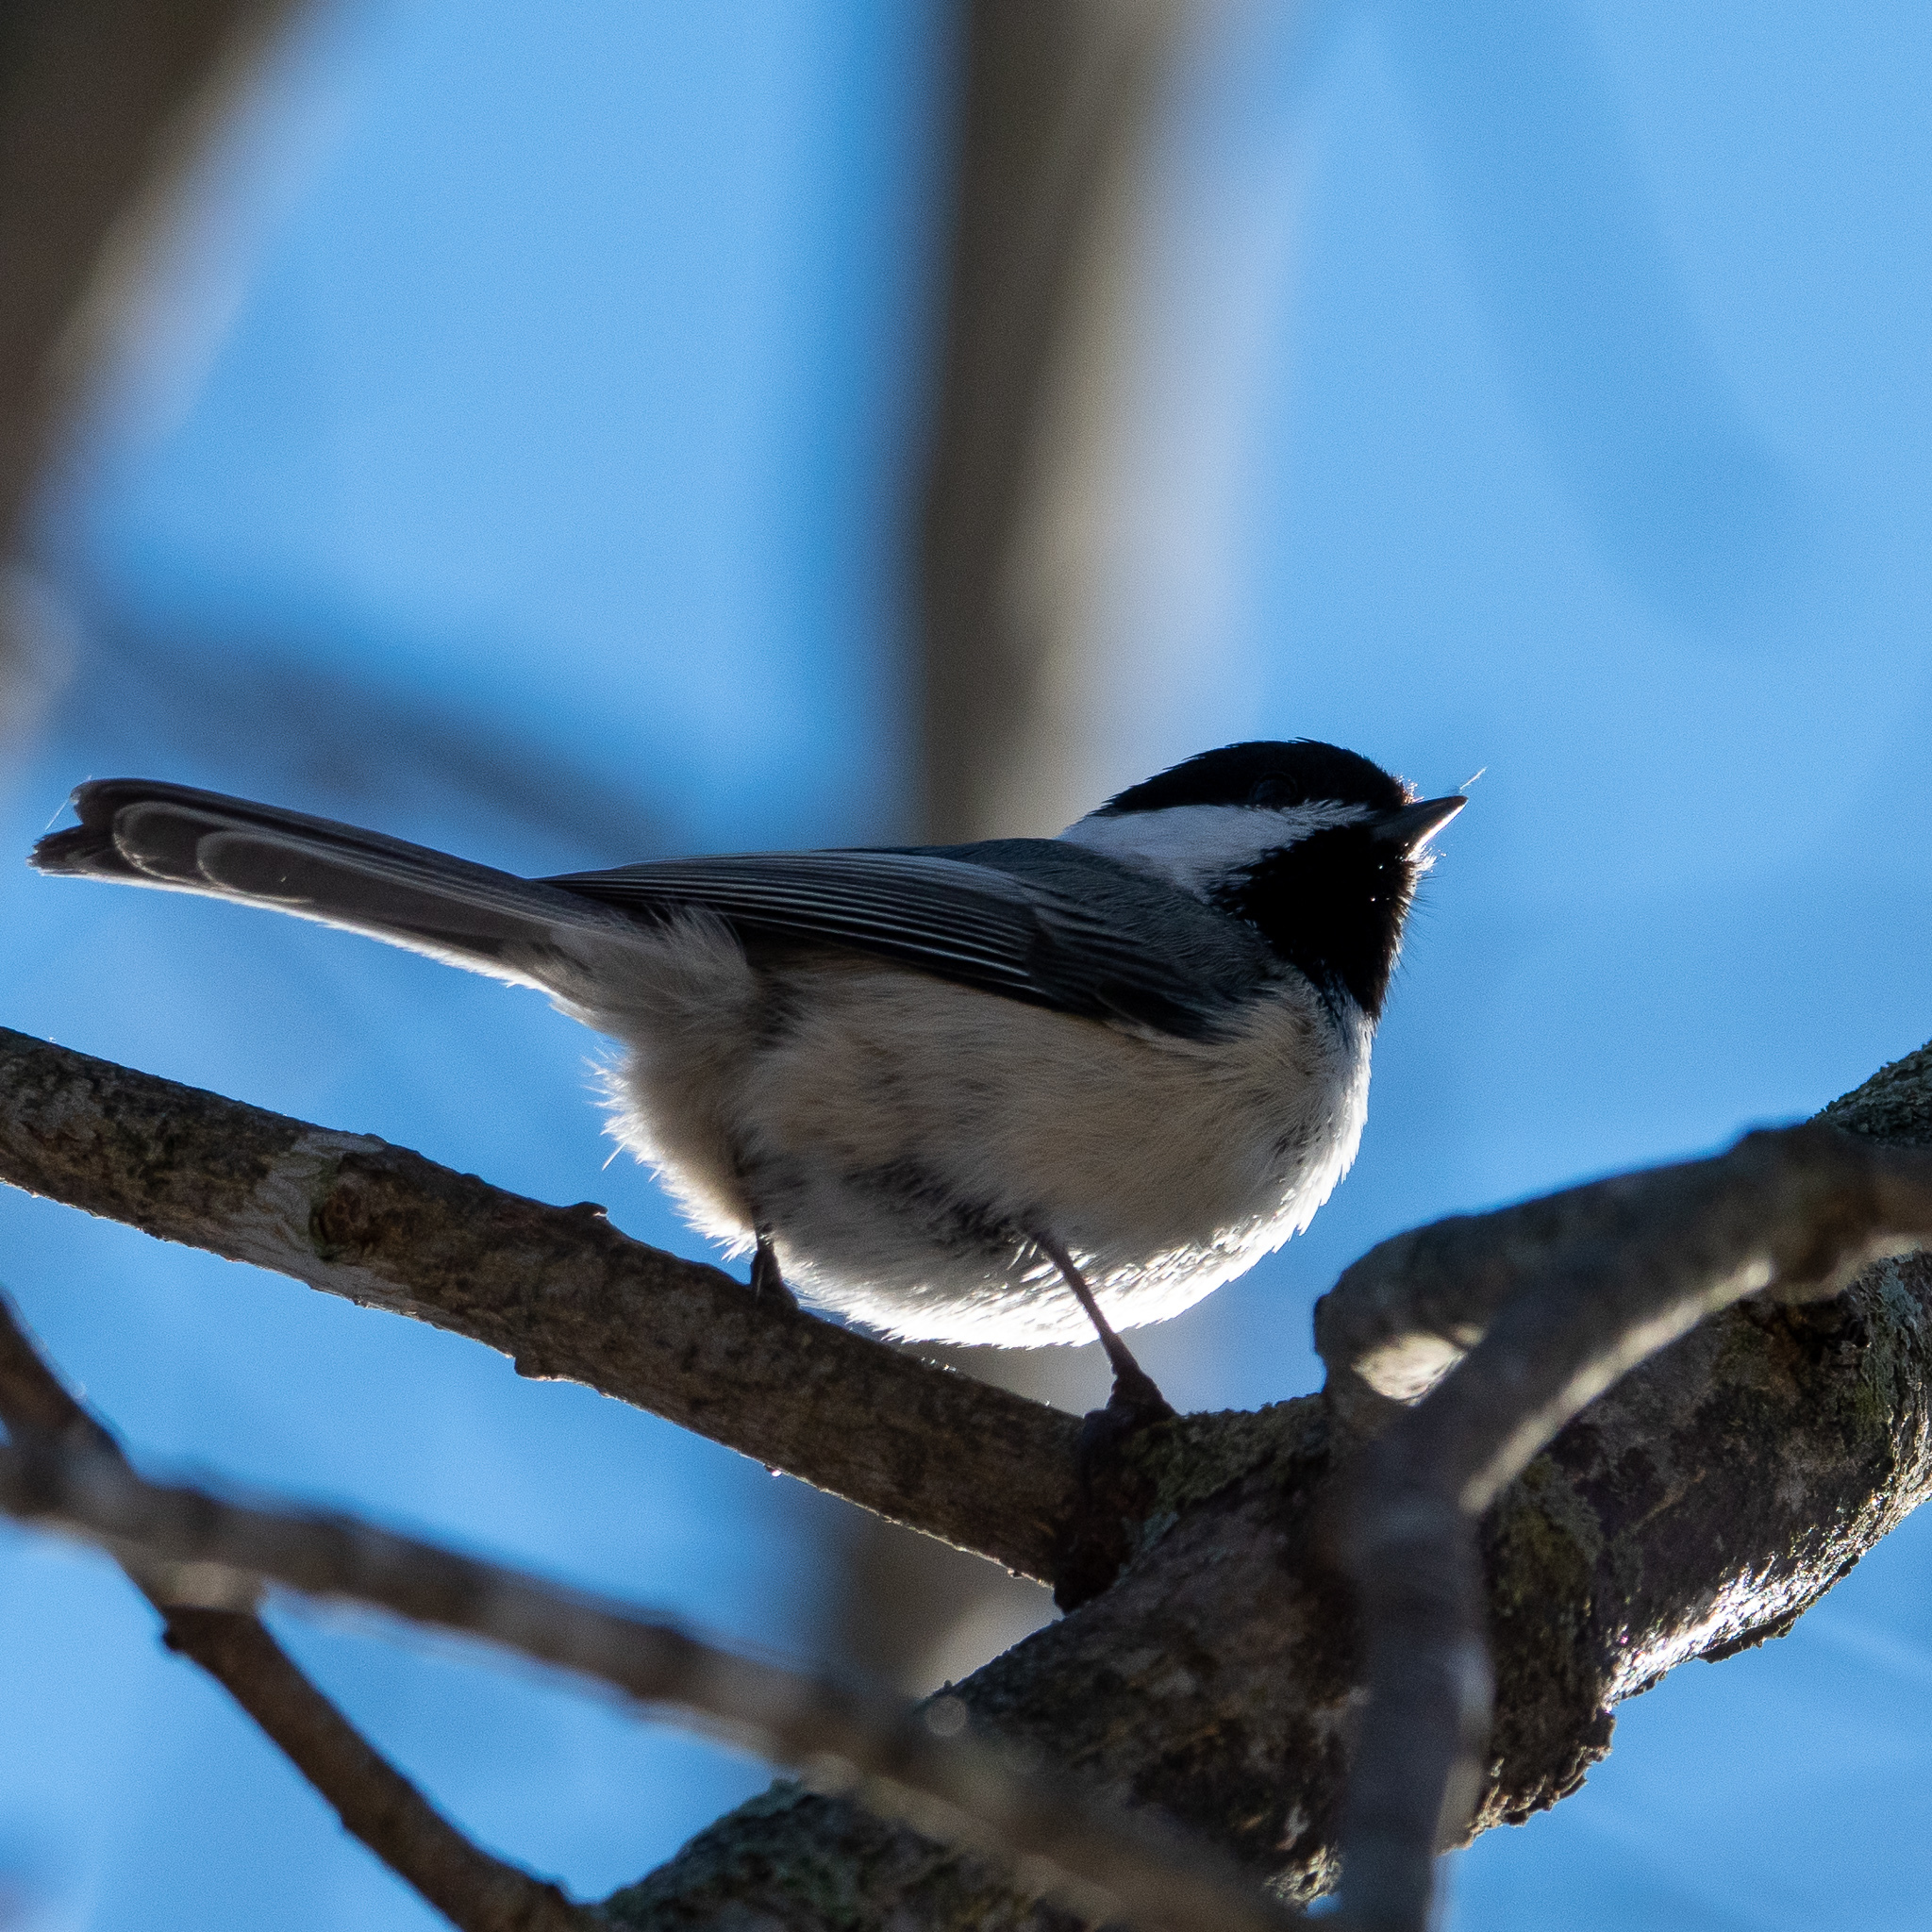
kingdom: Animalia
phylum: Chordata
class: Aves
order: Passeriformes
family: Paridae
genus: Poecile
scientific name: Poecile atricapillus
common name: Black-capped chickadee
